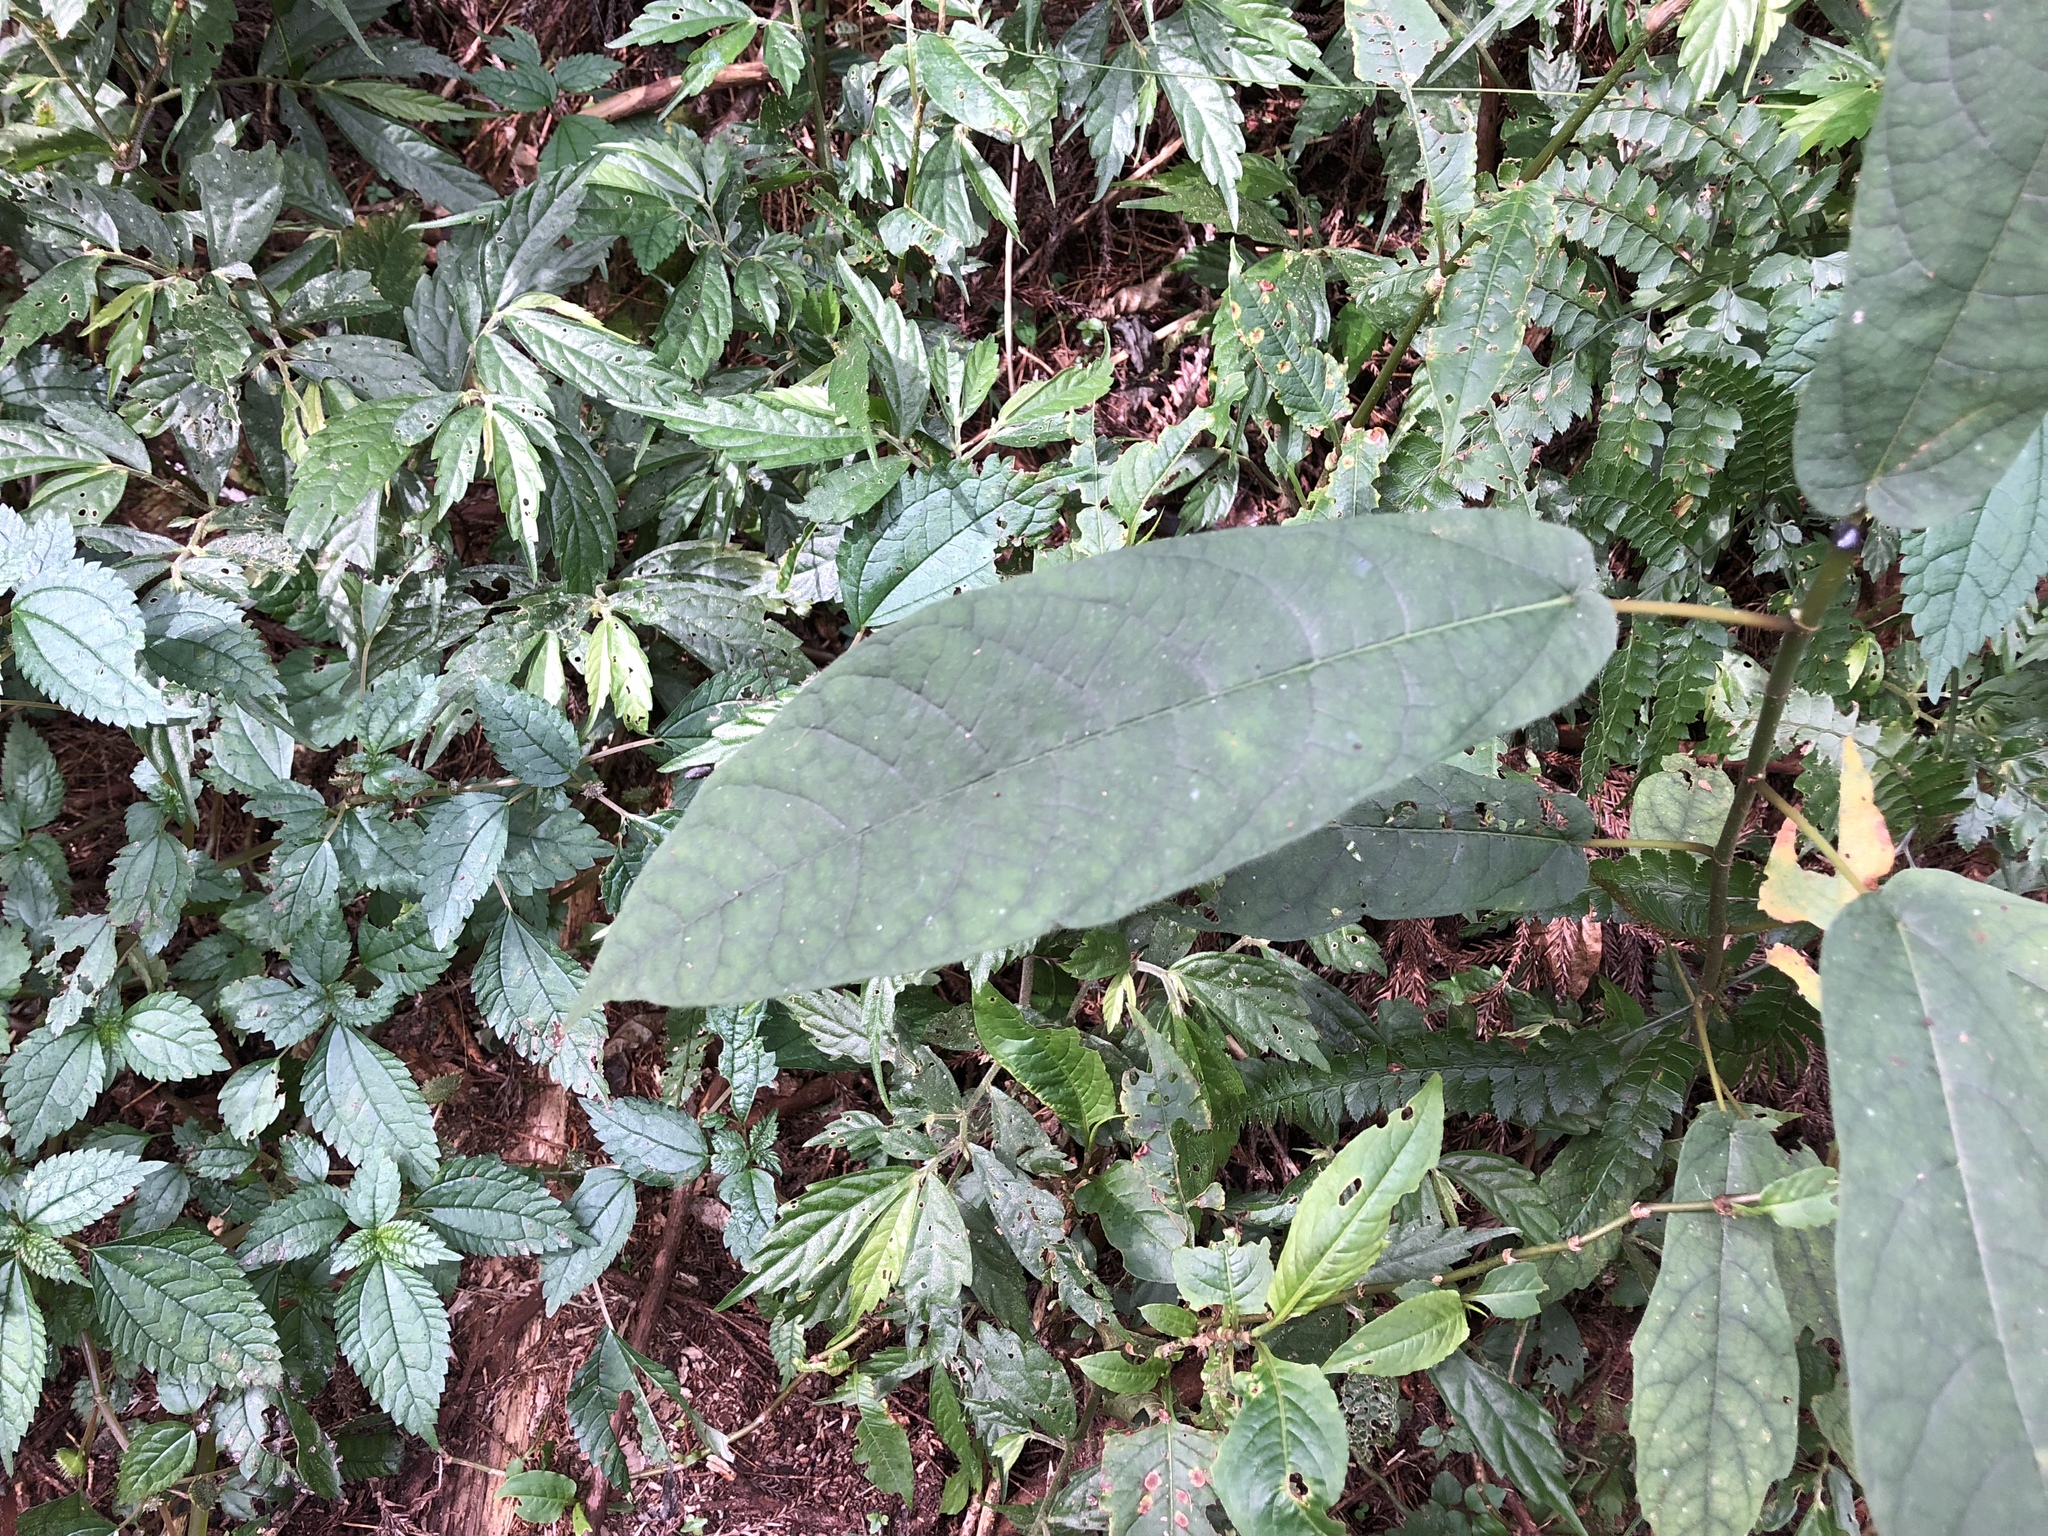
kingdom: Plantae
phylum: Tracheophyta
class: Magnoliopsida
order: Rosales
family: Moraceae
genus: Ficus
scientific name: Ficus erecta
